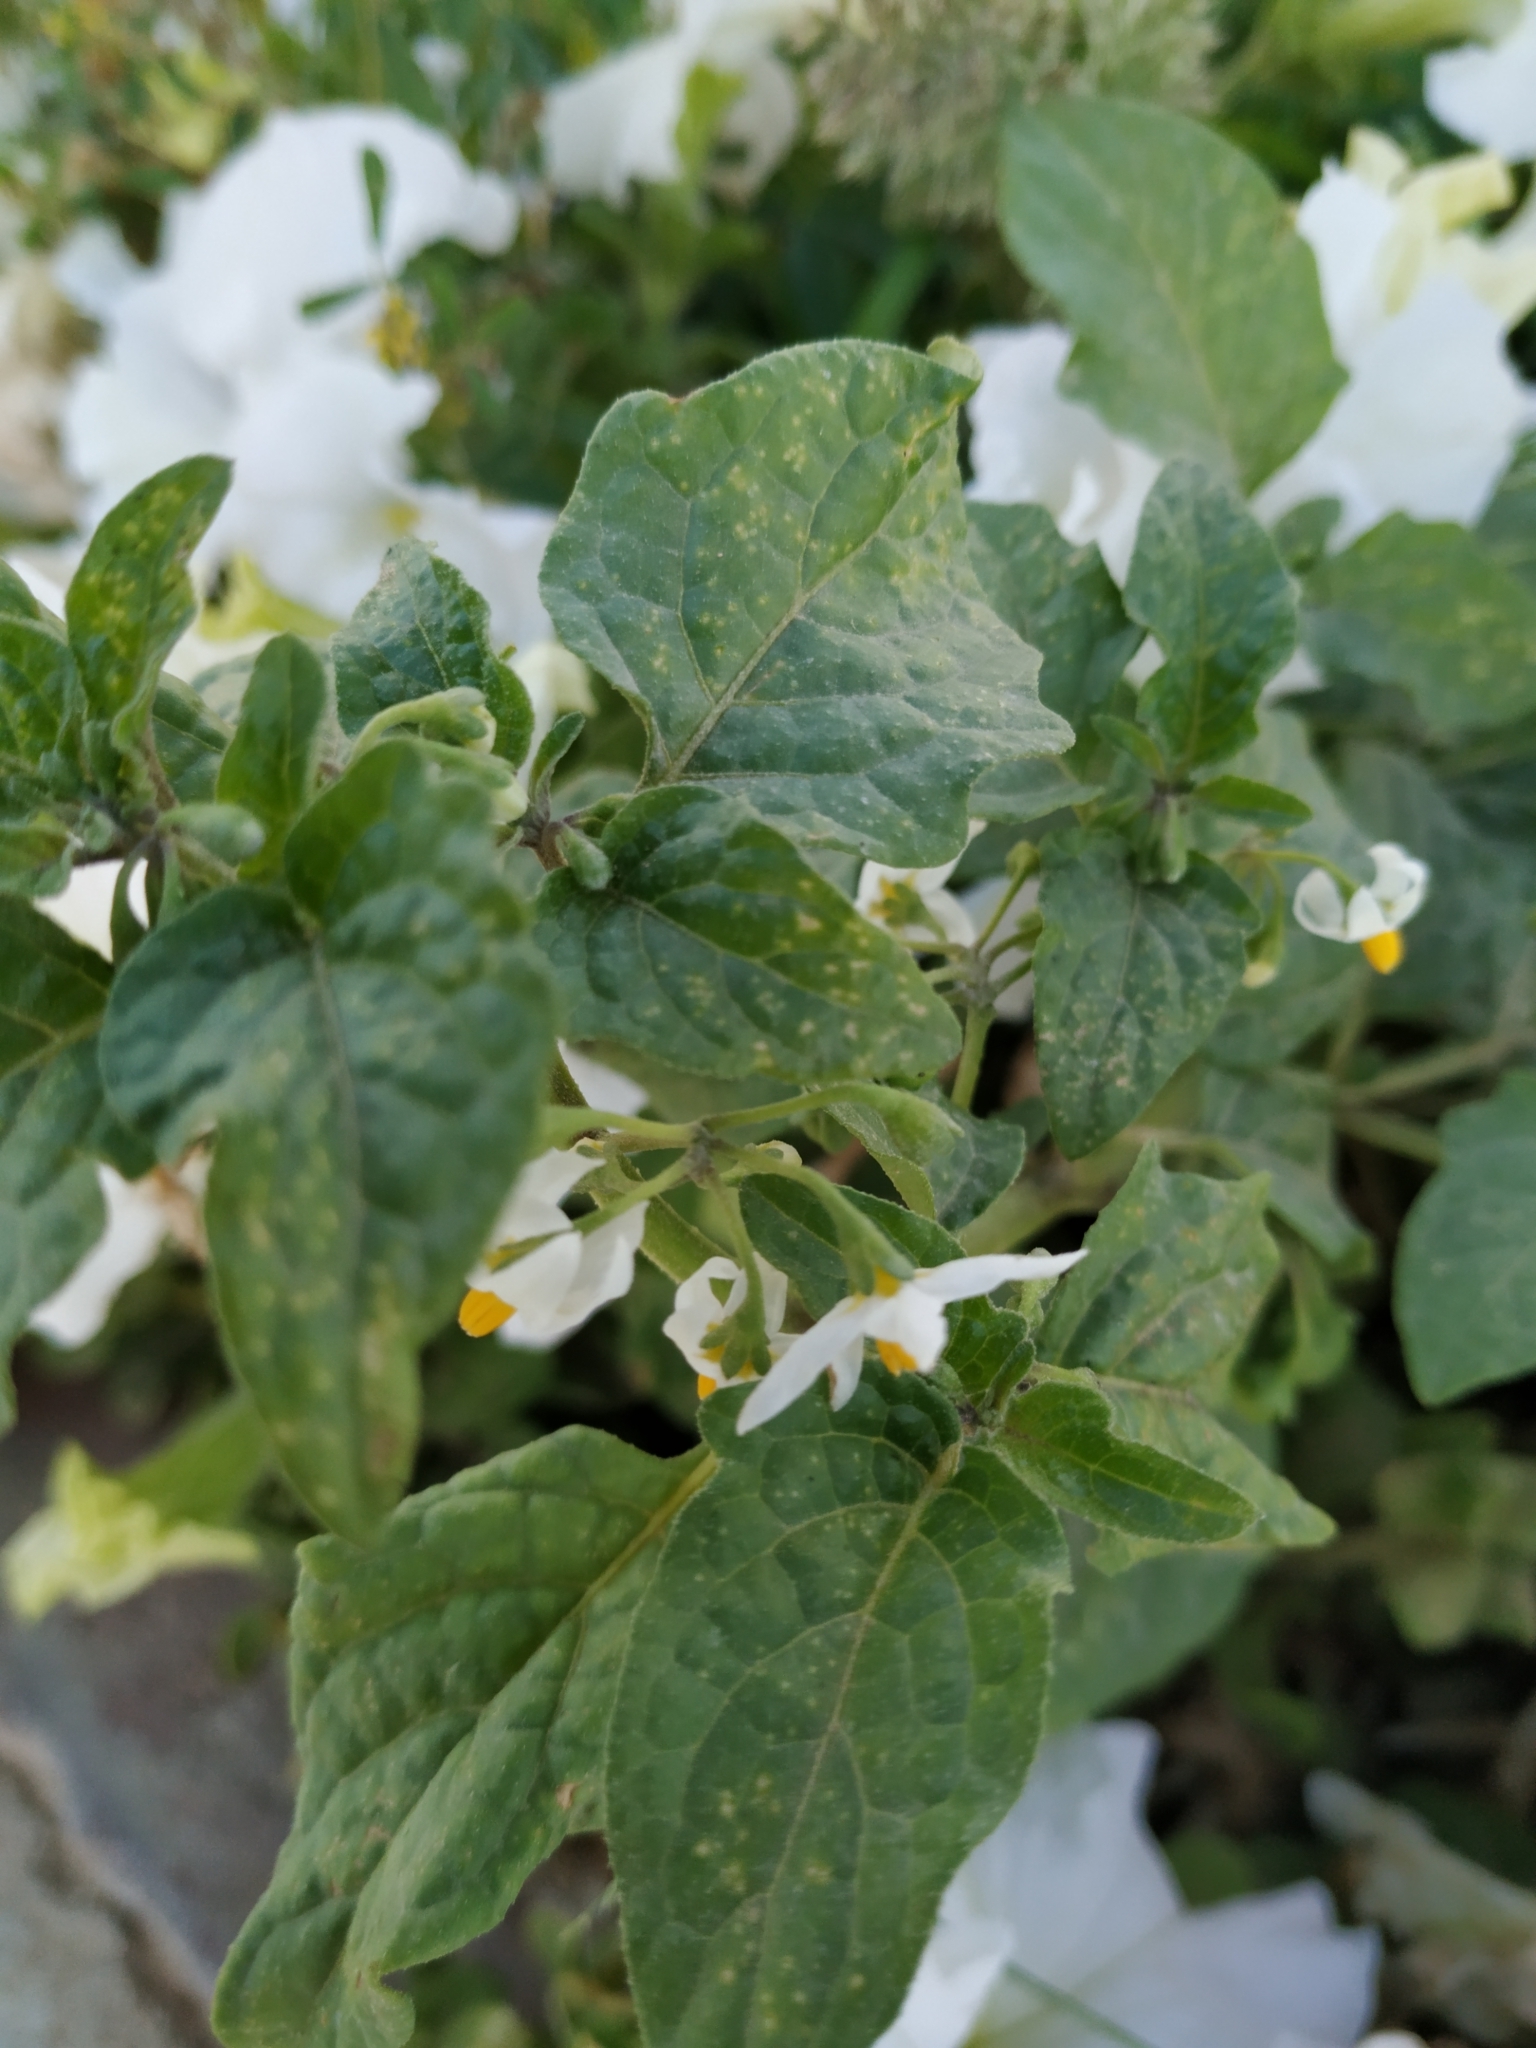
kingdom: Plantae
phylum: Tracheophyta
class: Magnoliopsida
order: Solanales
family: Solanaceae
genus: Solanum
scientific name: Solanum nigrum
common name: Black nightshade
